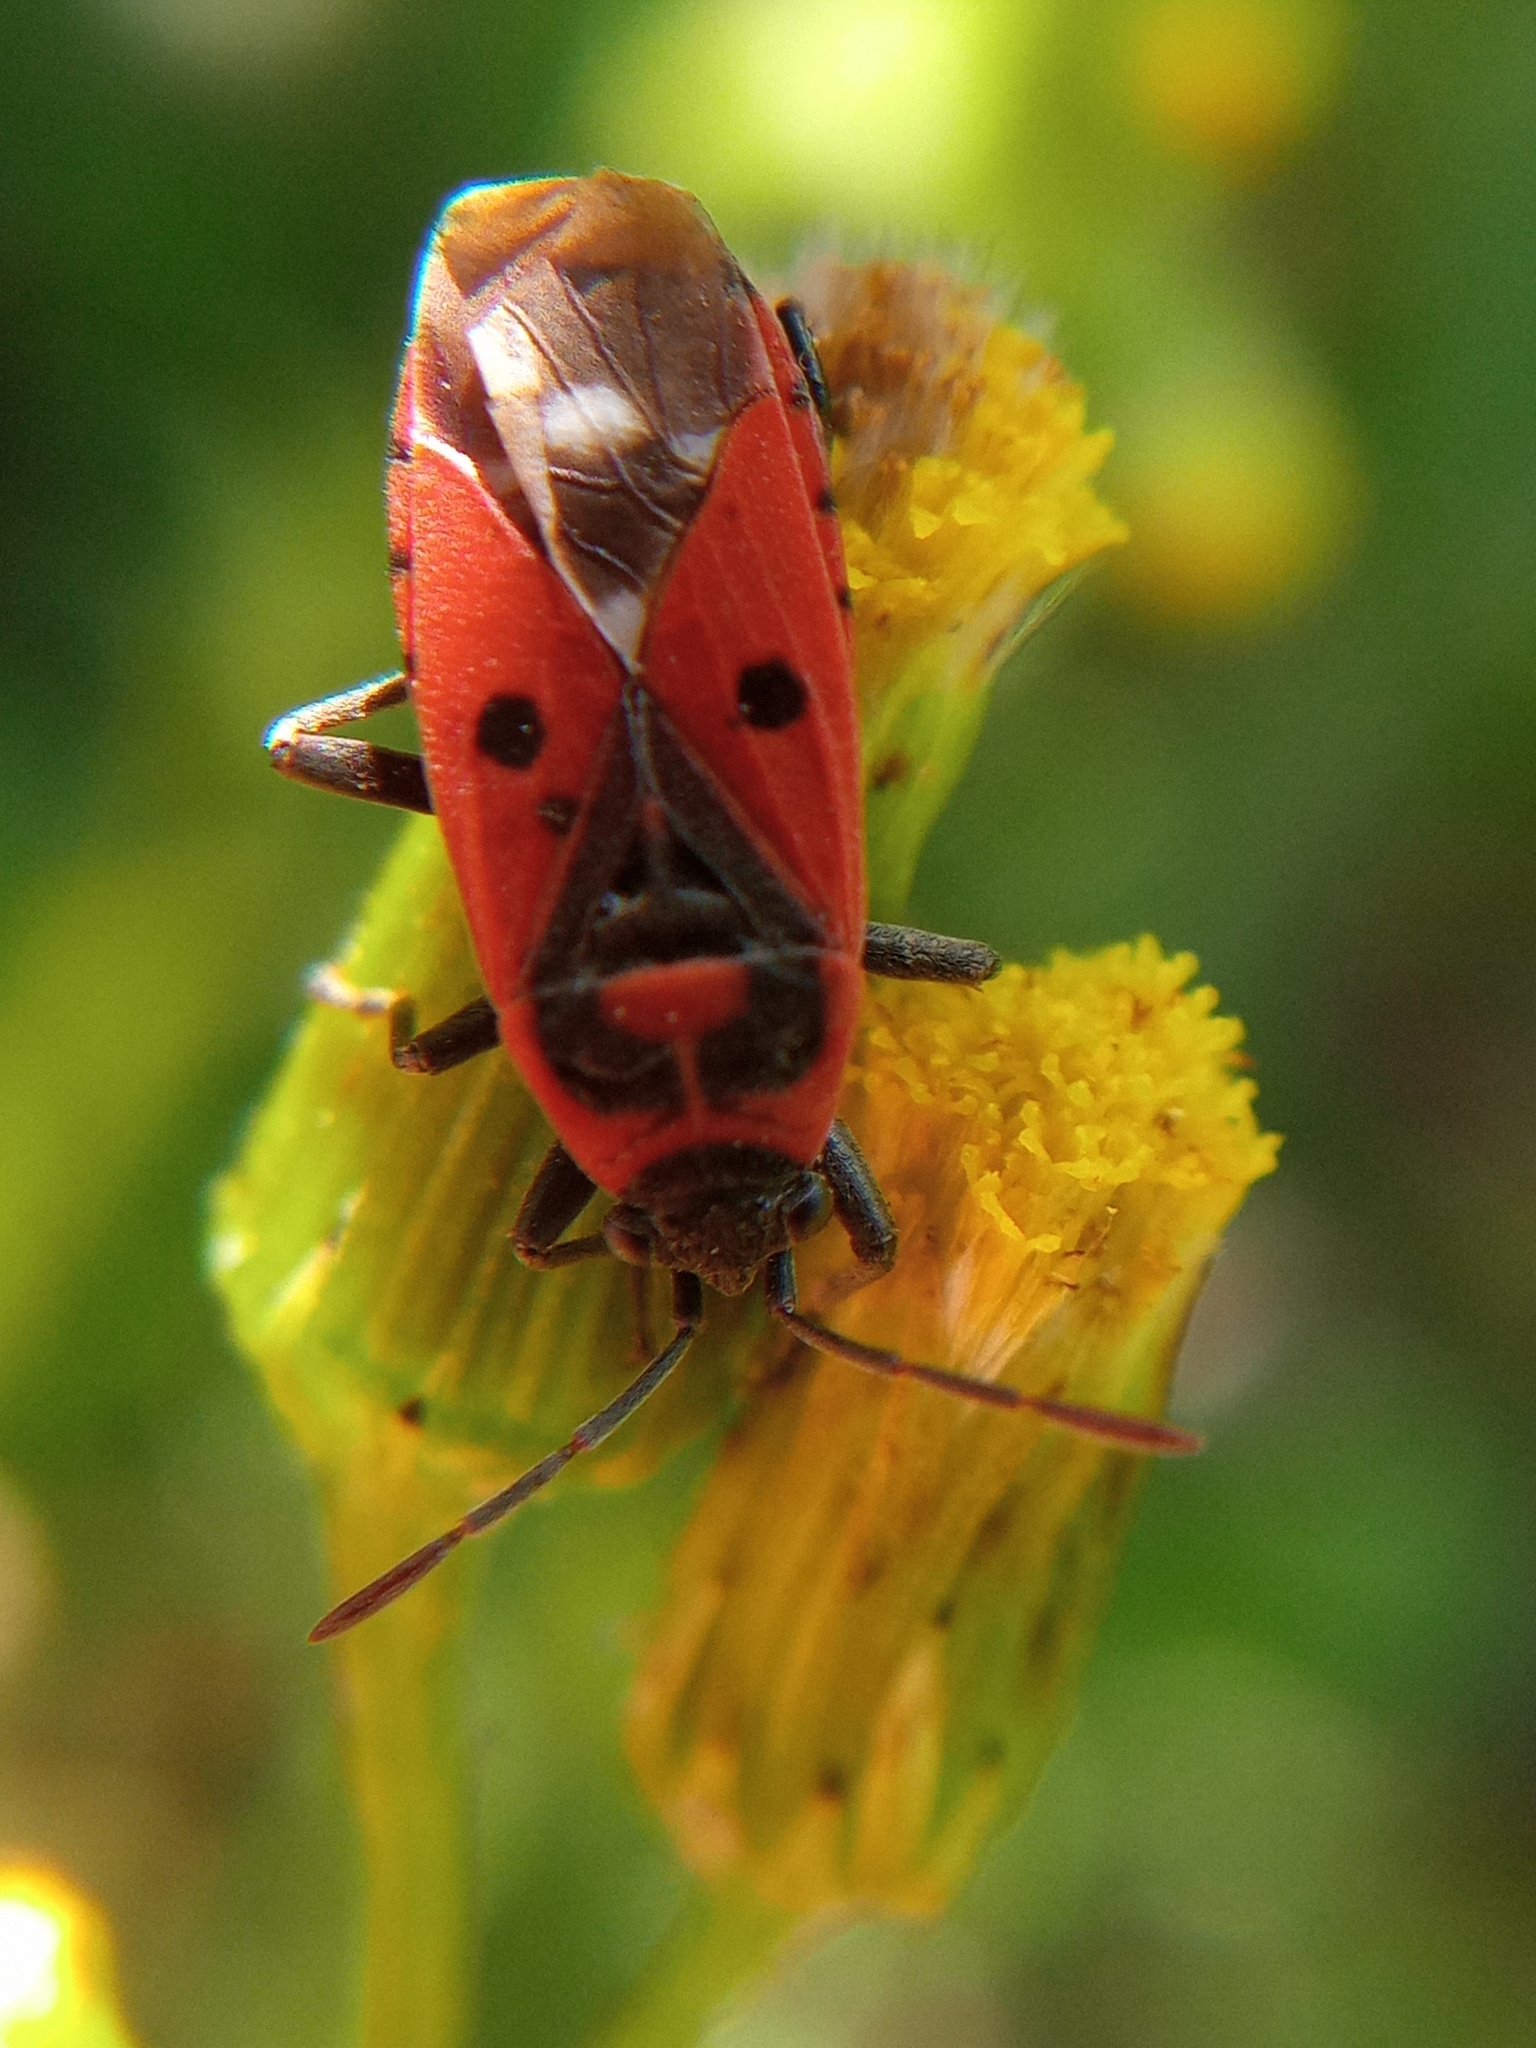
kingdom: Animalia
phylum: Arthropoda
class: Insecta
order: Hemiptera
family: Lygaeidae
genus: Melanocoryphus
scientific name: Melanocoryphus albomaculatus
